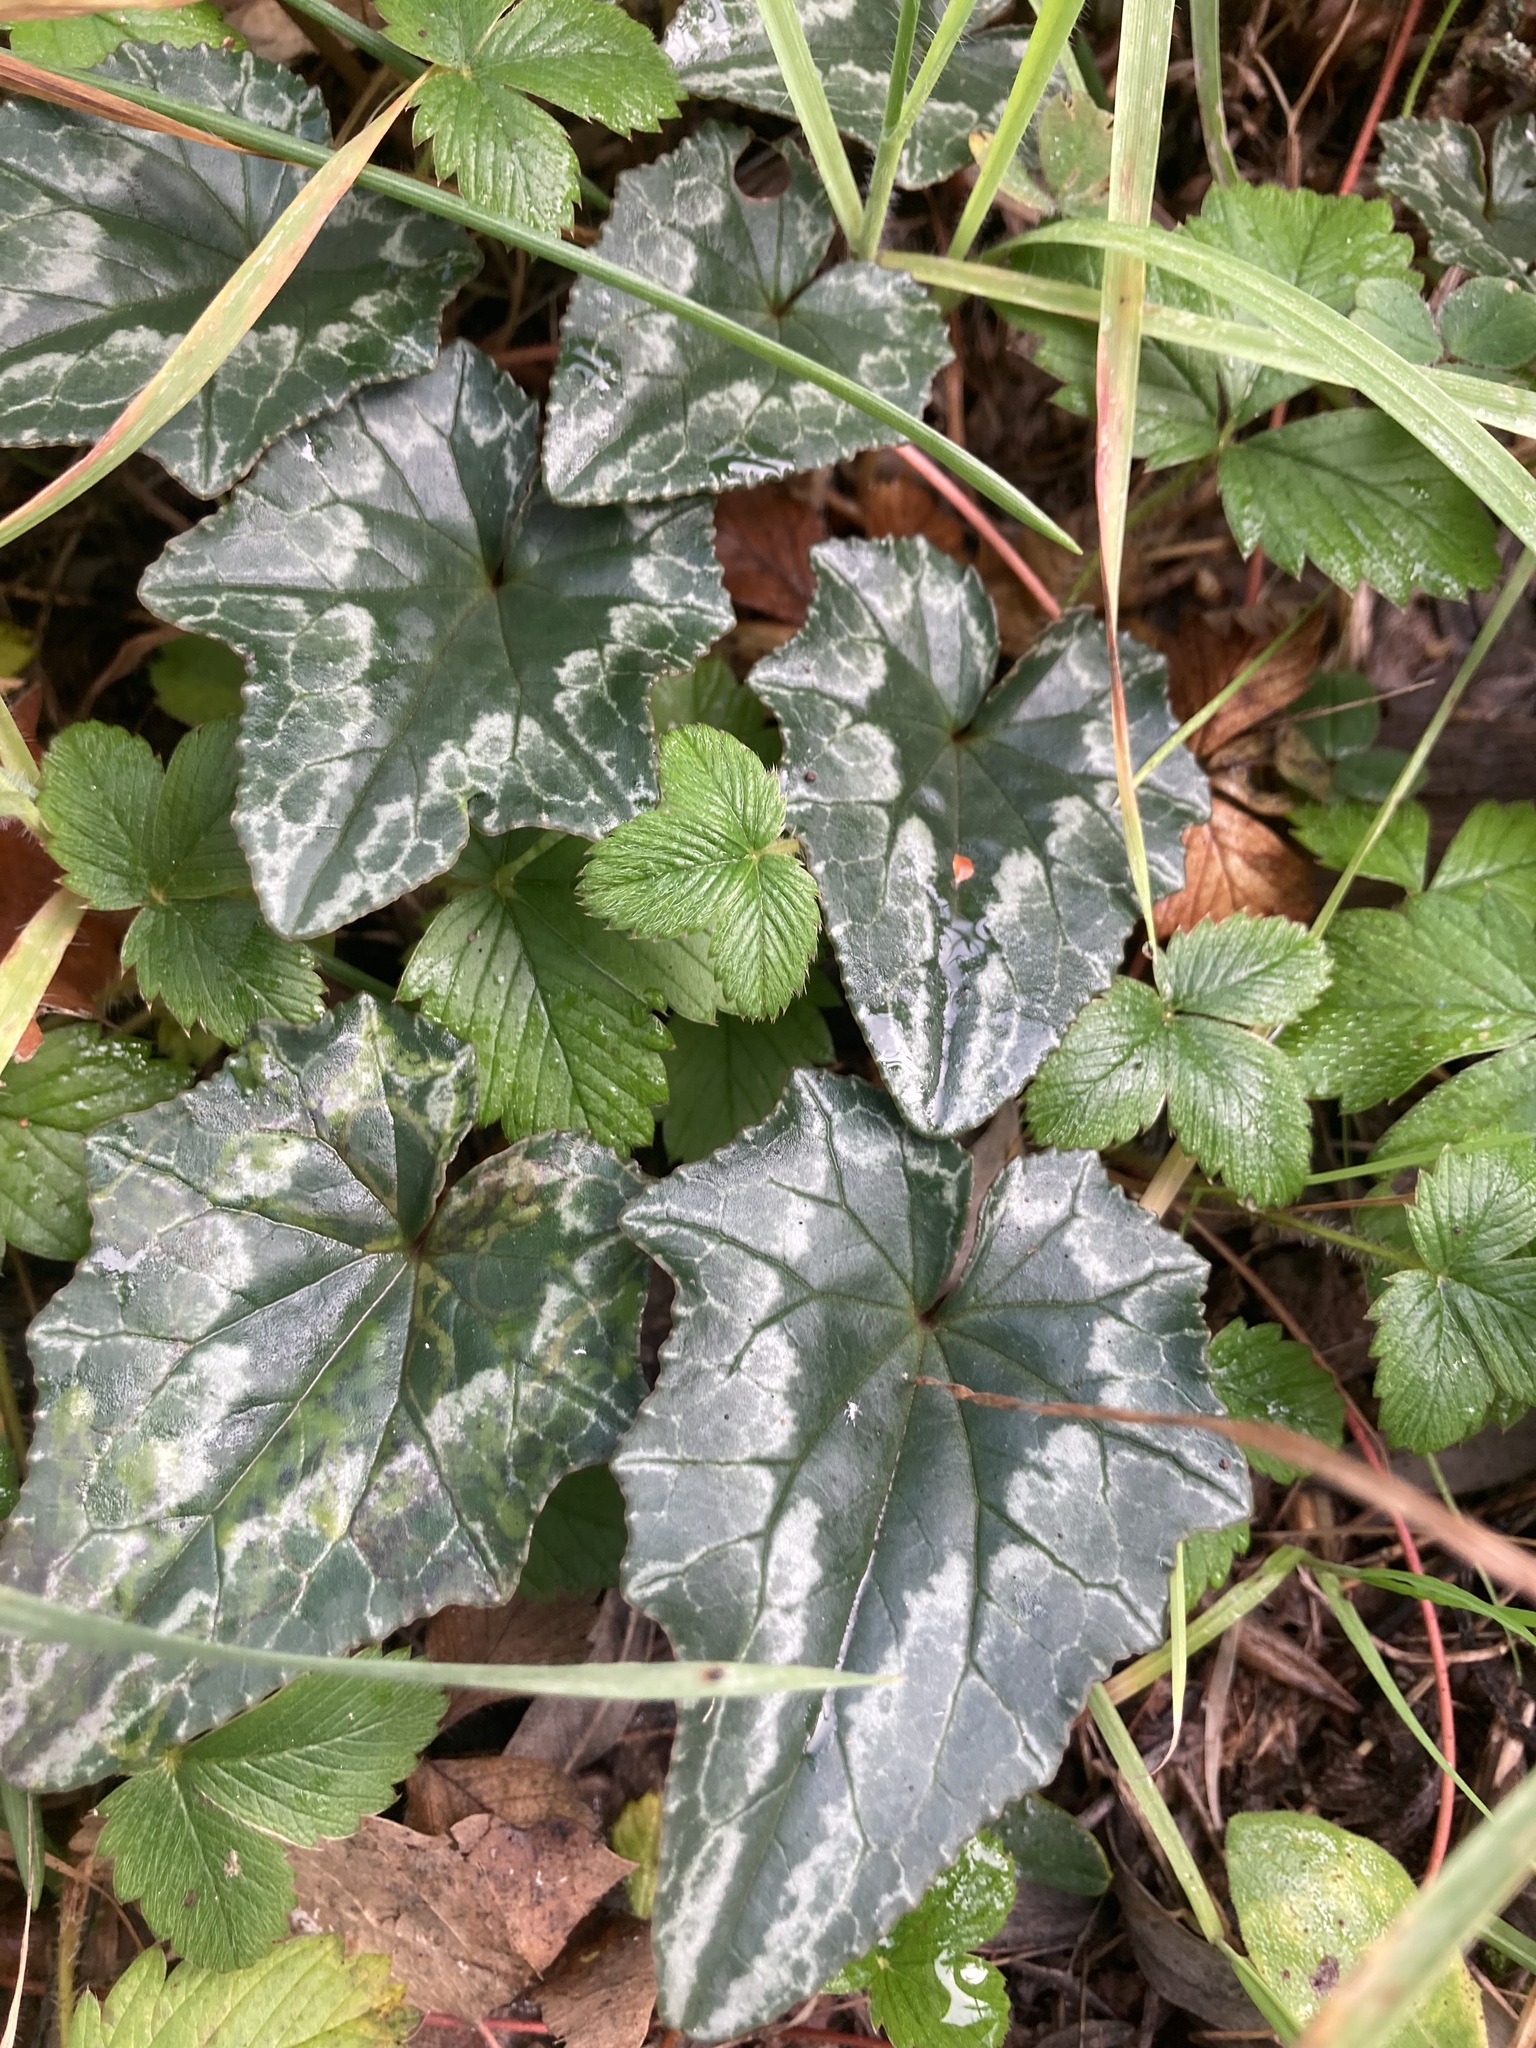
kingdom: Plantae
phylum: Tracheophyta
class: Magnoliopsida
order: Ericales
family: Primulaceae
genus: Cyclamen
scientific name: Cyclamen hederifolium
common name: Sowbread
